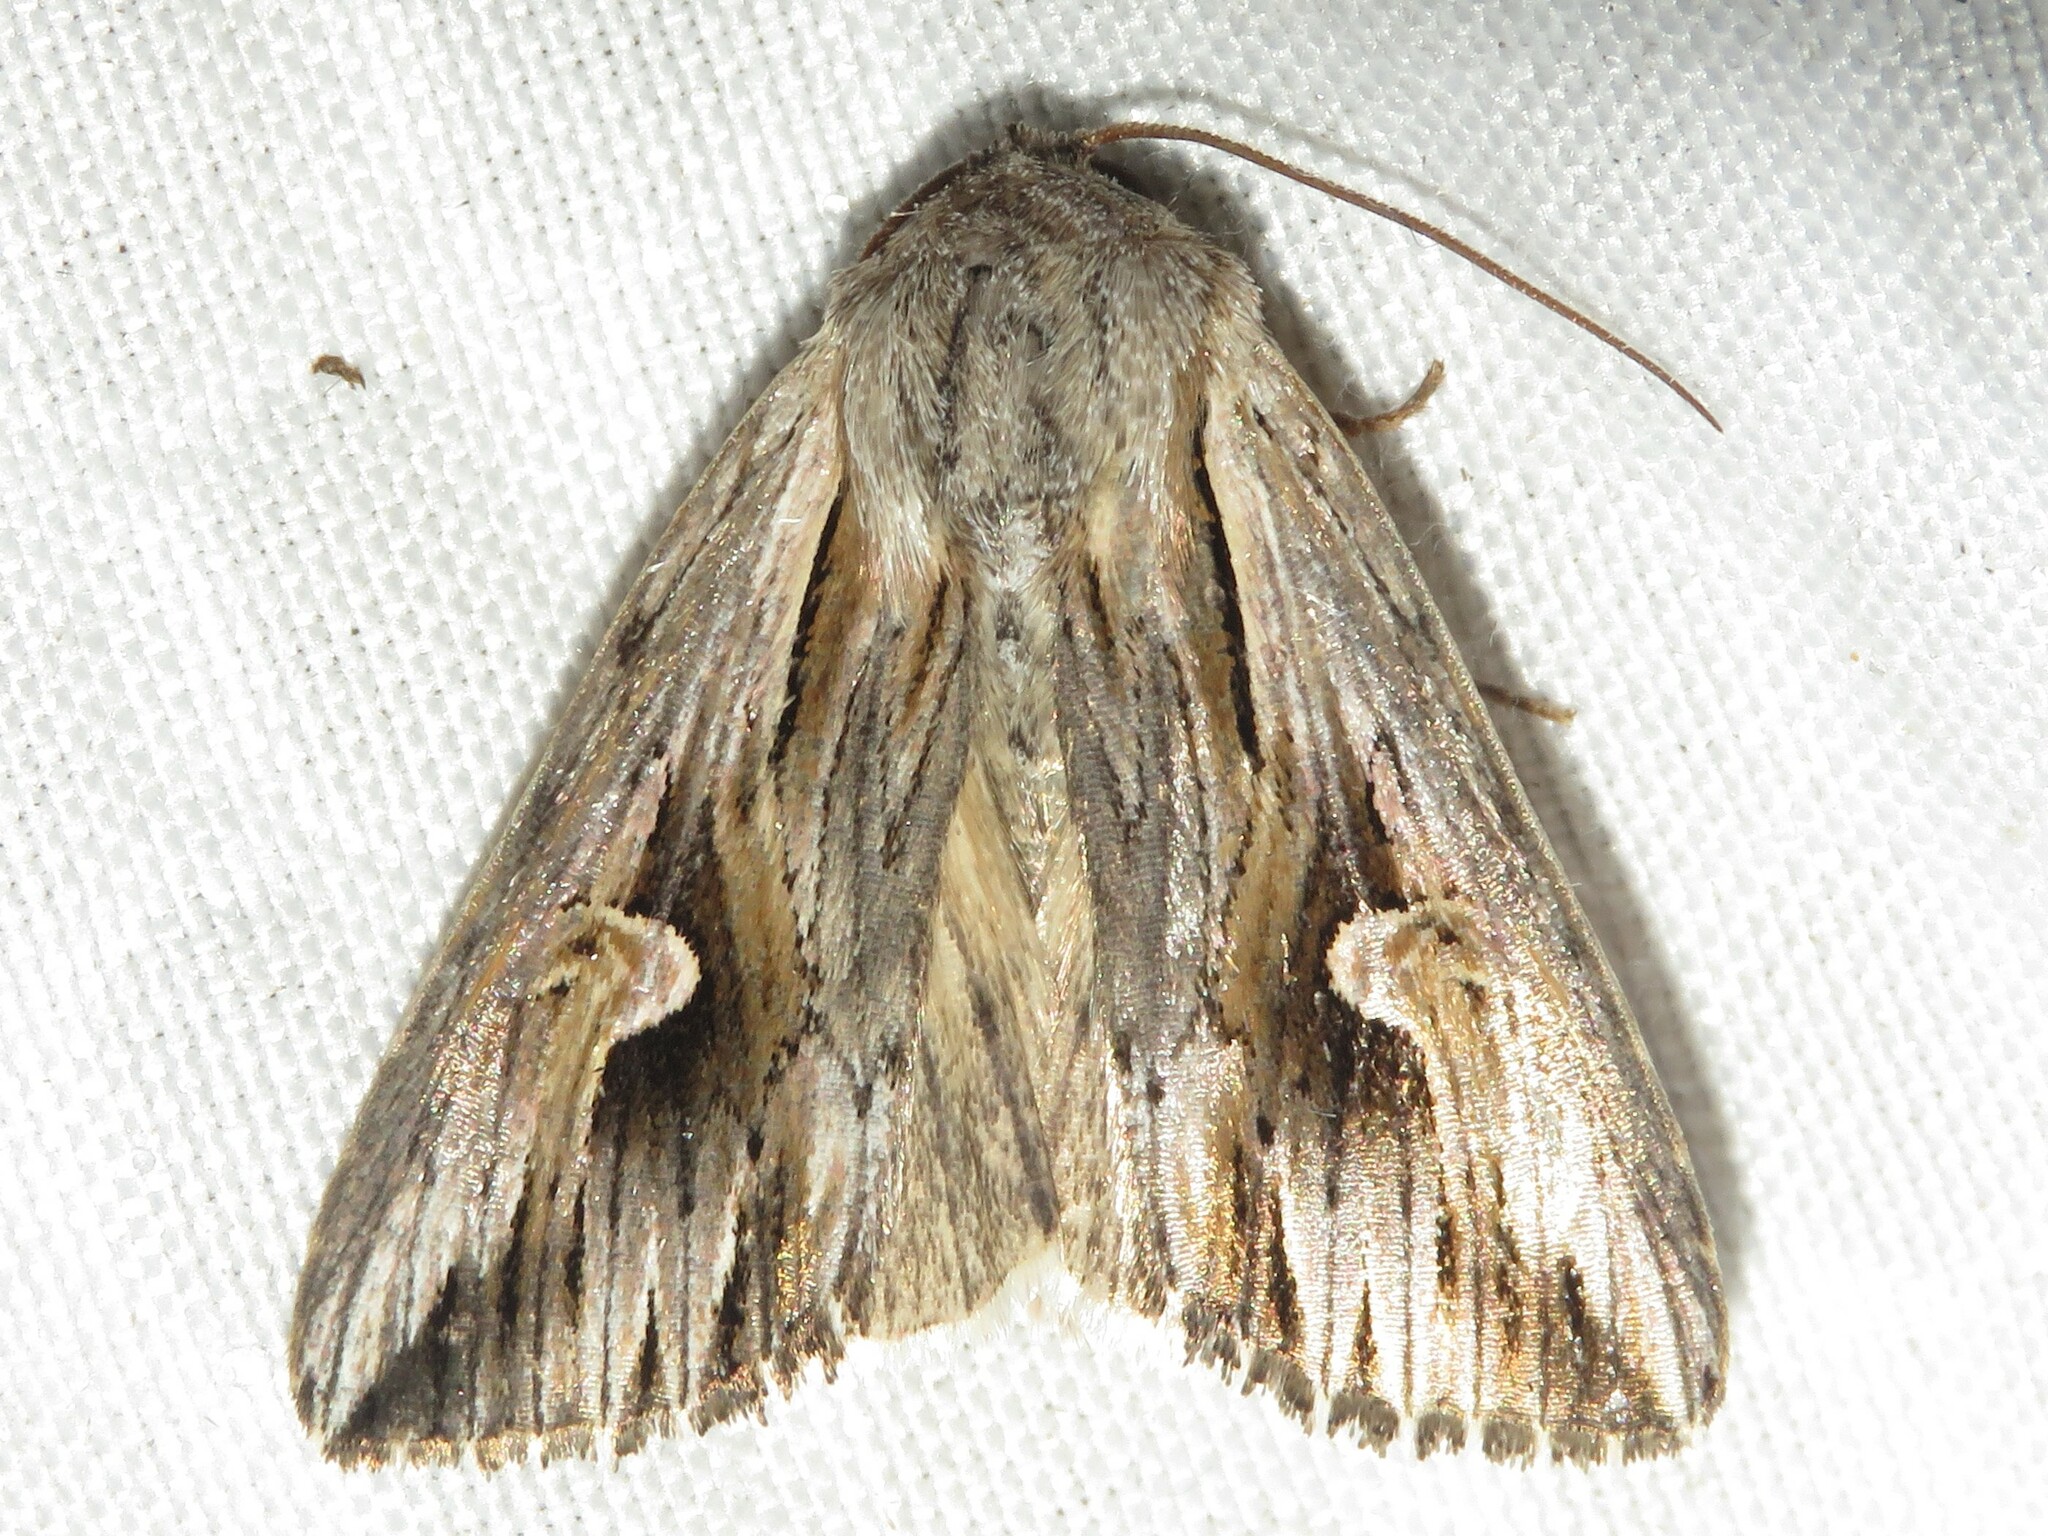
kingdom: Animalia
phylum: Arthropoda
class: Insecta
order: Lepidoptera
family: Noctuidae
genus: Nedra
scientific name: Nedra ramosula
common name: Gray half-spot
